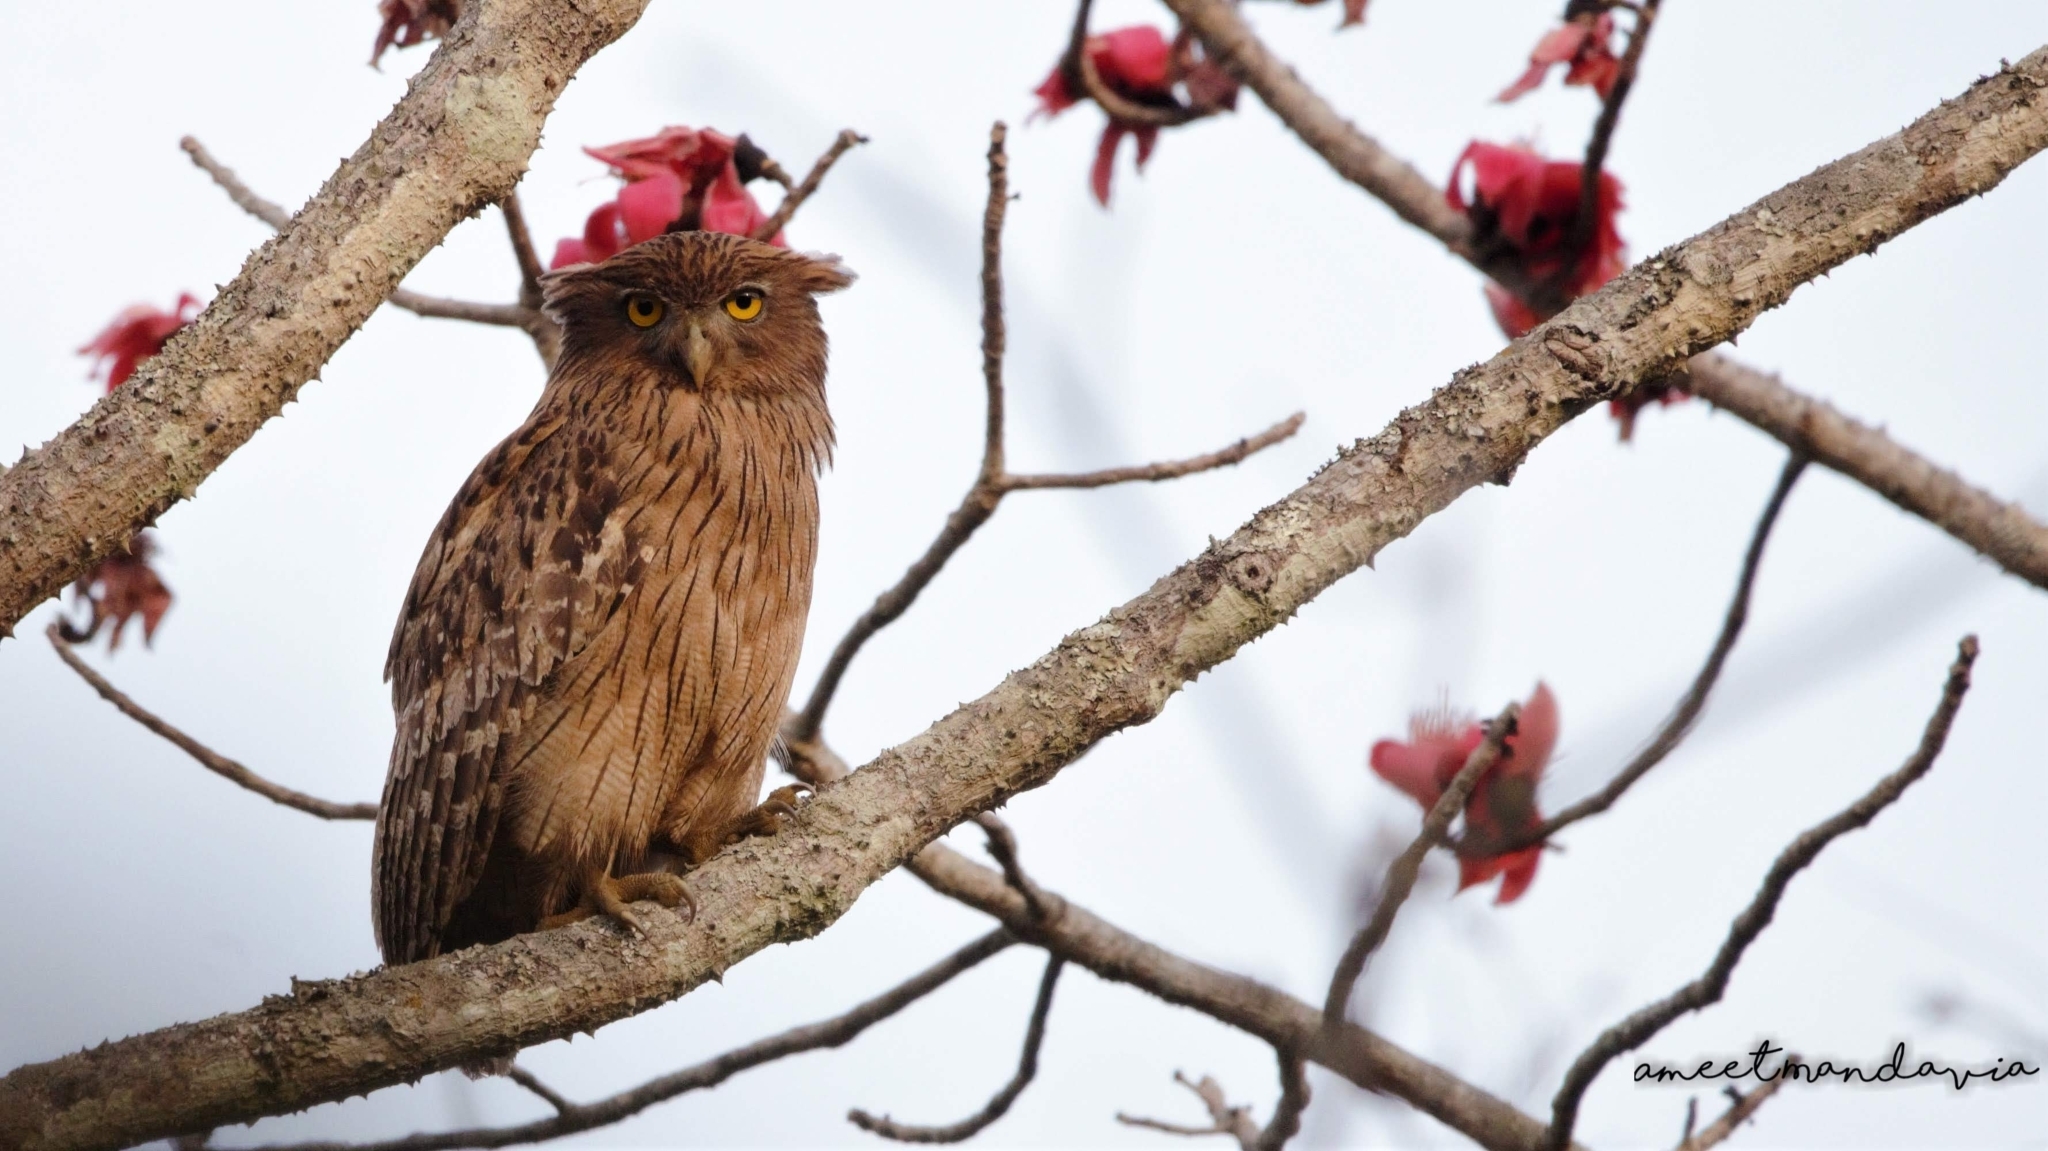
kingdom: Animalia
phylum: Chordata
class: Aves
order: Strigiformes
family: Strigidae
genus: Ketupa
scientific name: Ketupa zeylonensis
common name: Brown fish owl
